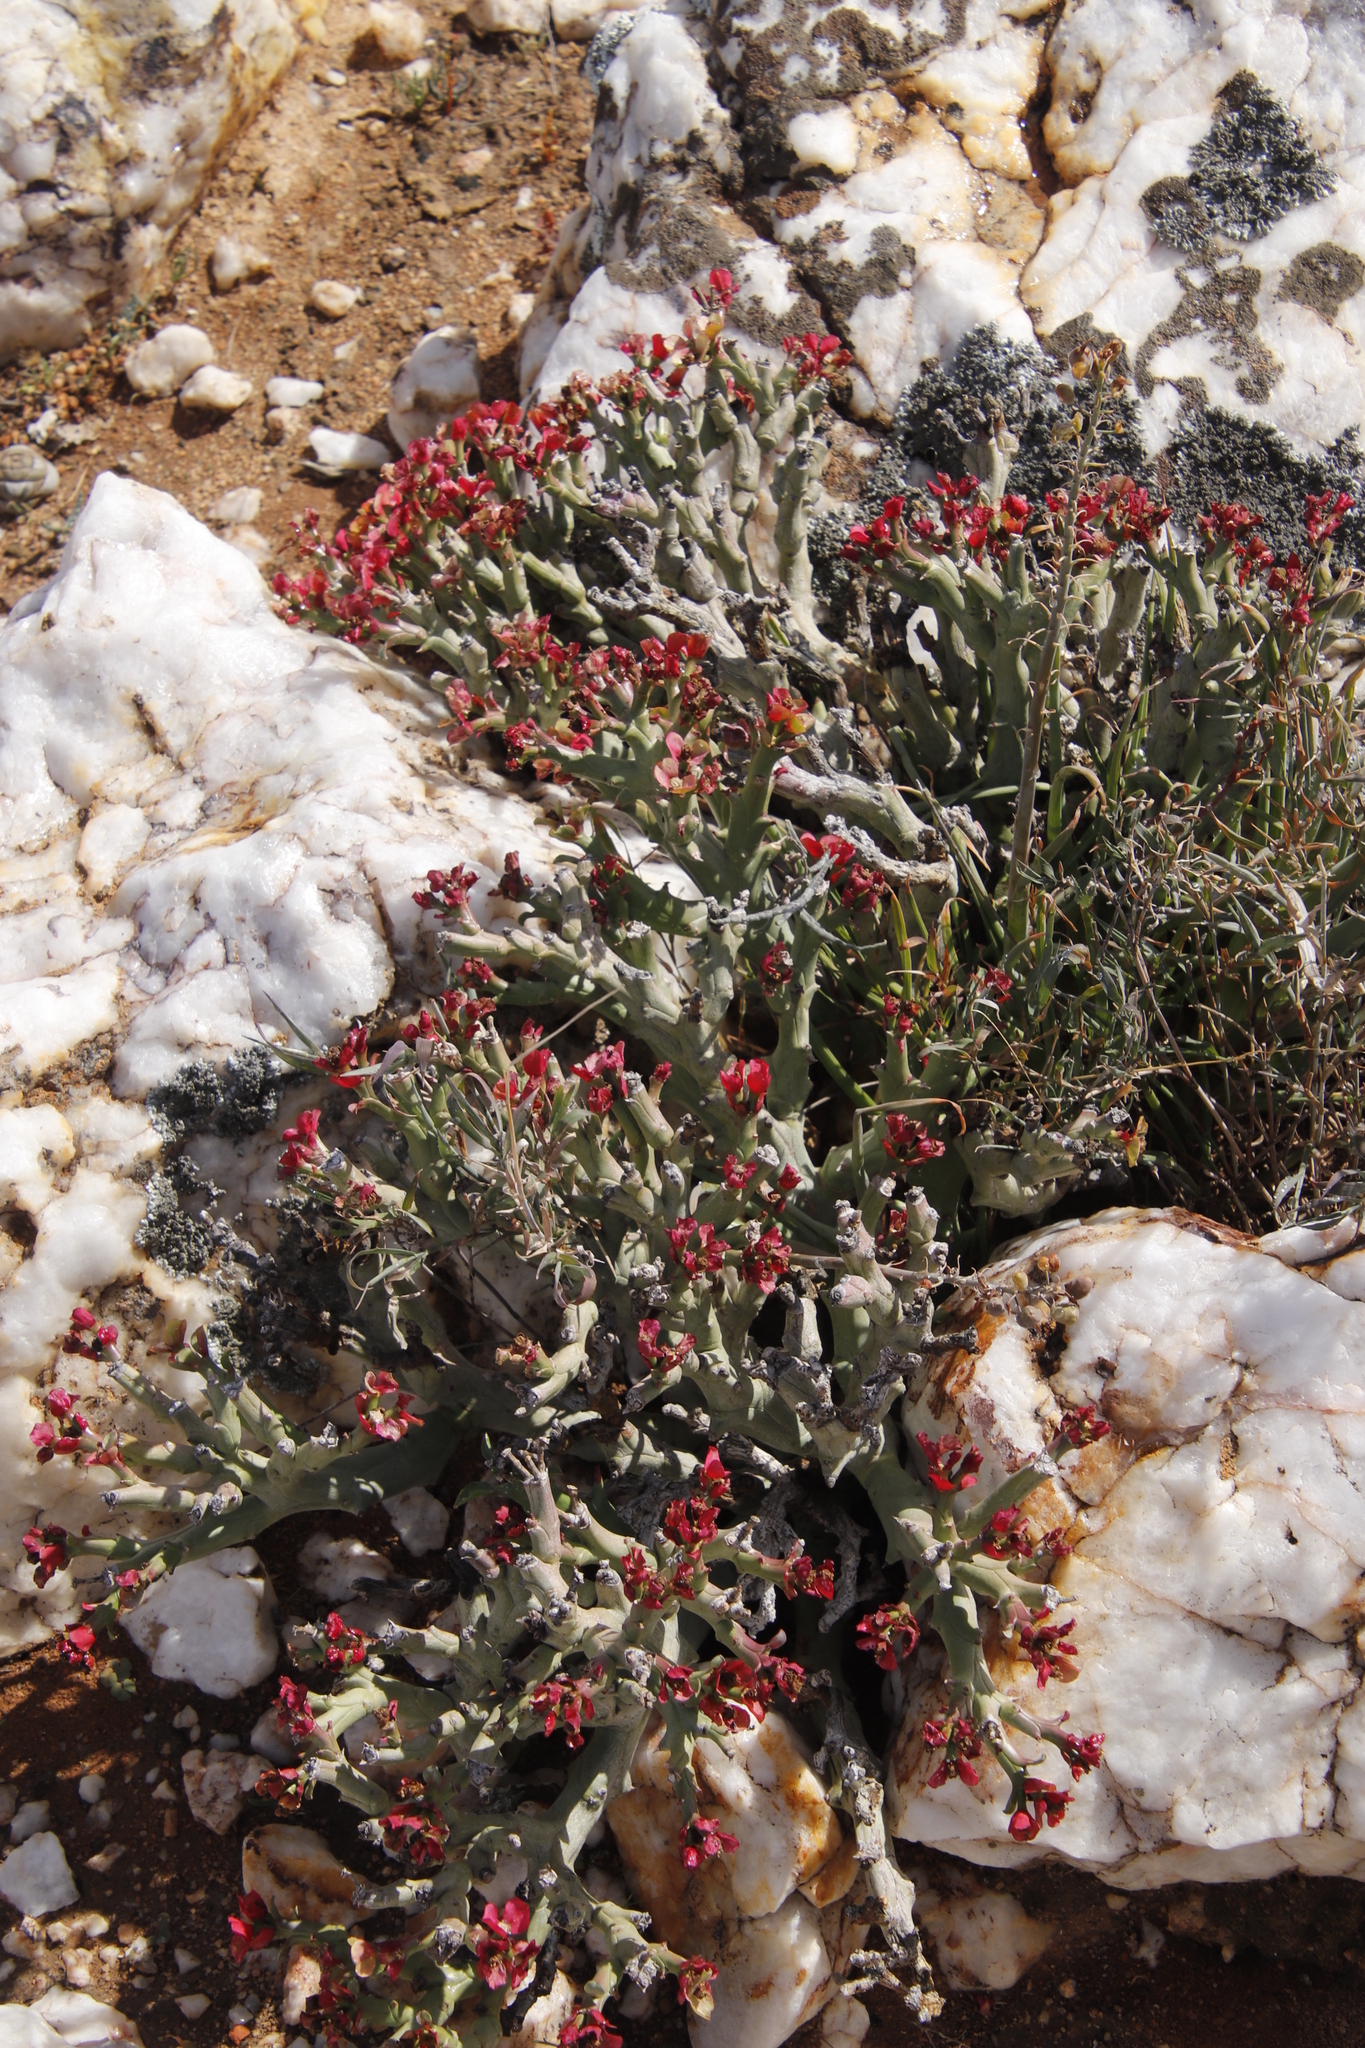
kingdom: Plantae
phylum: Tracheophyta
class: Magnoliopsida
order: Malpighiales
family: Euphorbiaceae
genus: Euphorbia
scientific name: Euphorbia hamata
